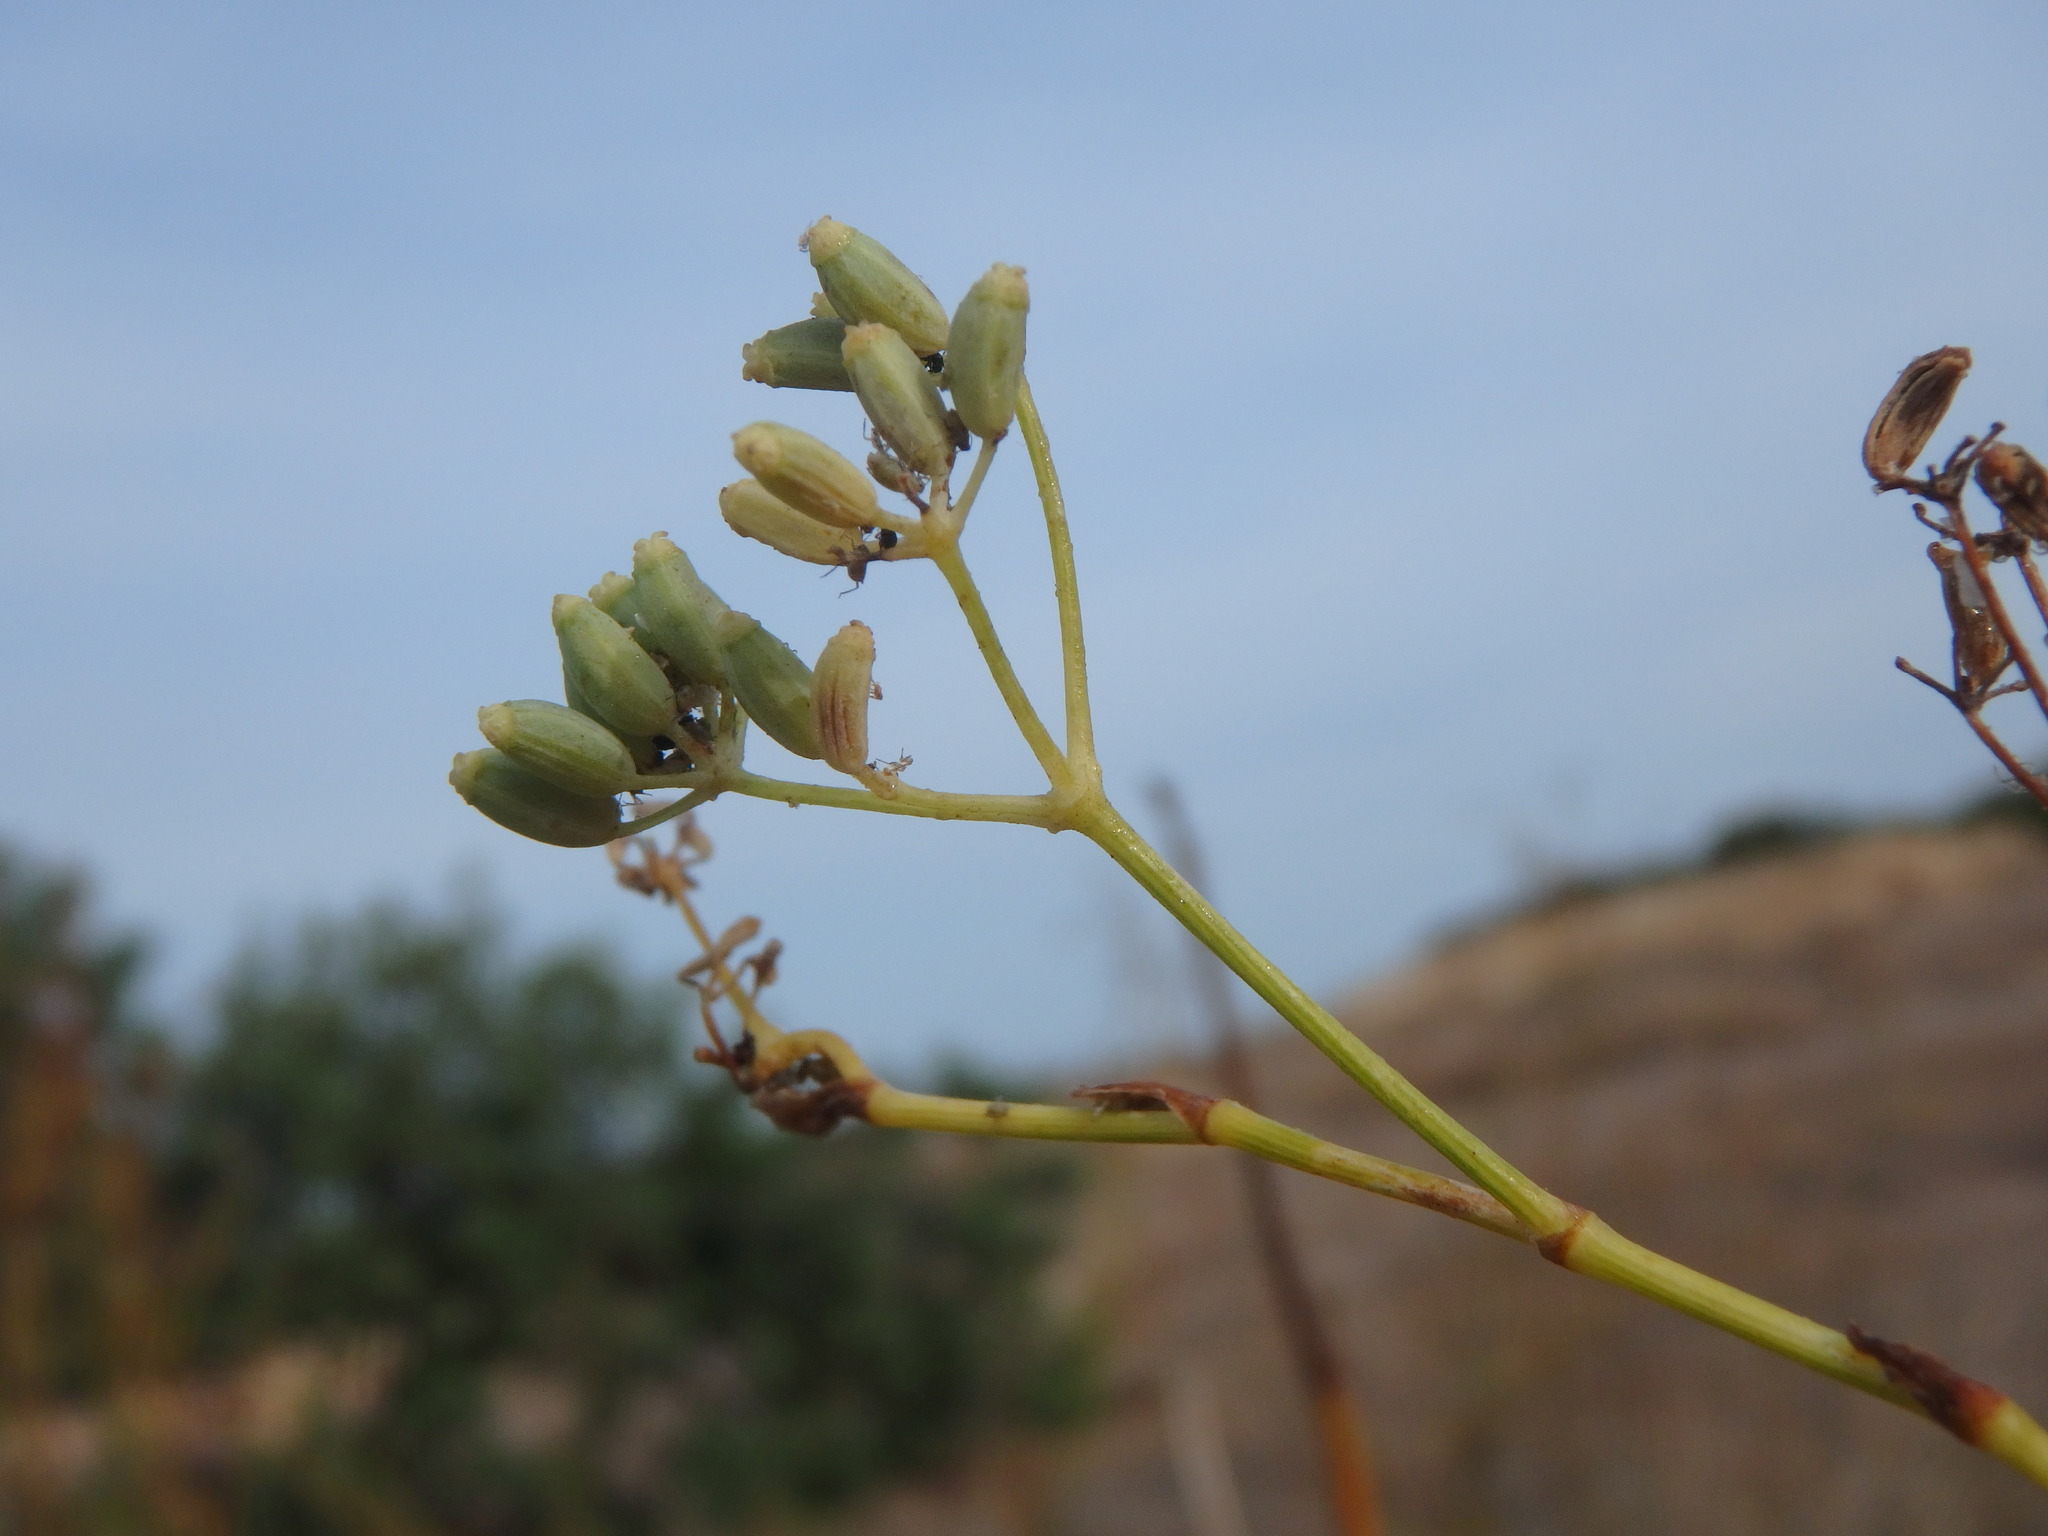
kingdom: Plantae
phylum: Tracheophyta
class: Magnoliopsida
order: Apiales
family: Apiaceae
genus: Foeniculum
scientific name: Foeniculum vulgare
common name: Fennel
